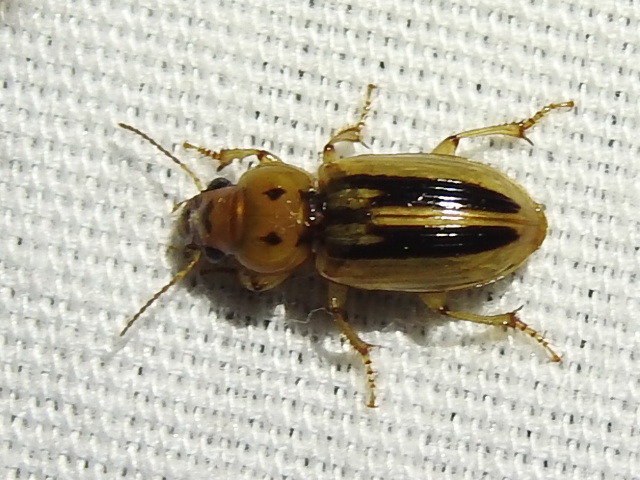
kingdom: Animalia
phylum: Arthropoda
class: Insecta
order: Coleoptera
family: Carabidae
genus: Stenolophus
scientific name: Stenolophus lineola
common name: Lined stenolophus
